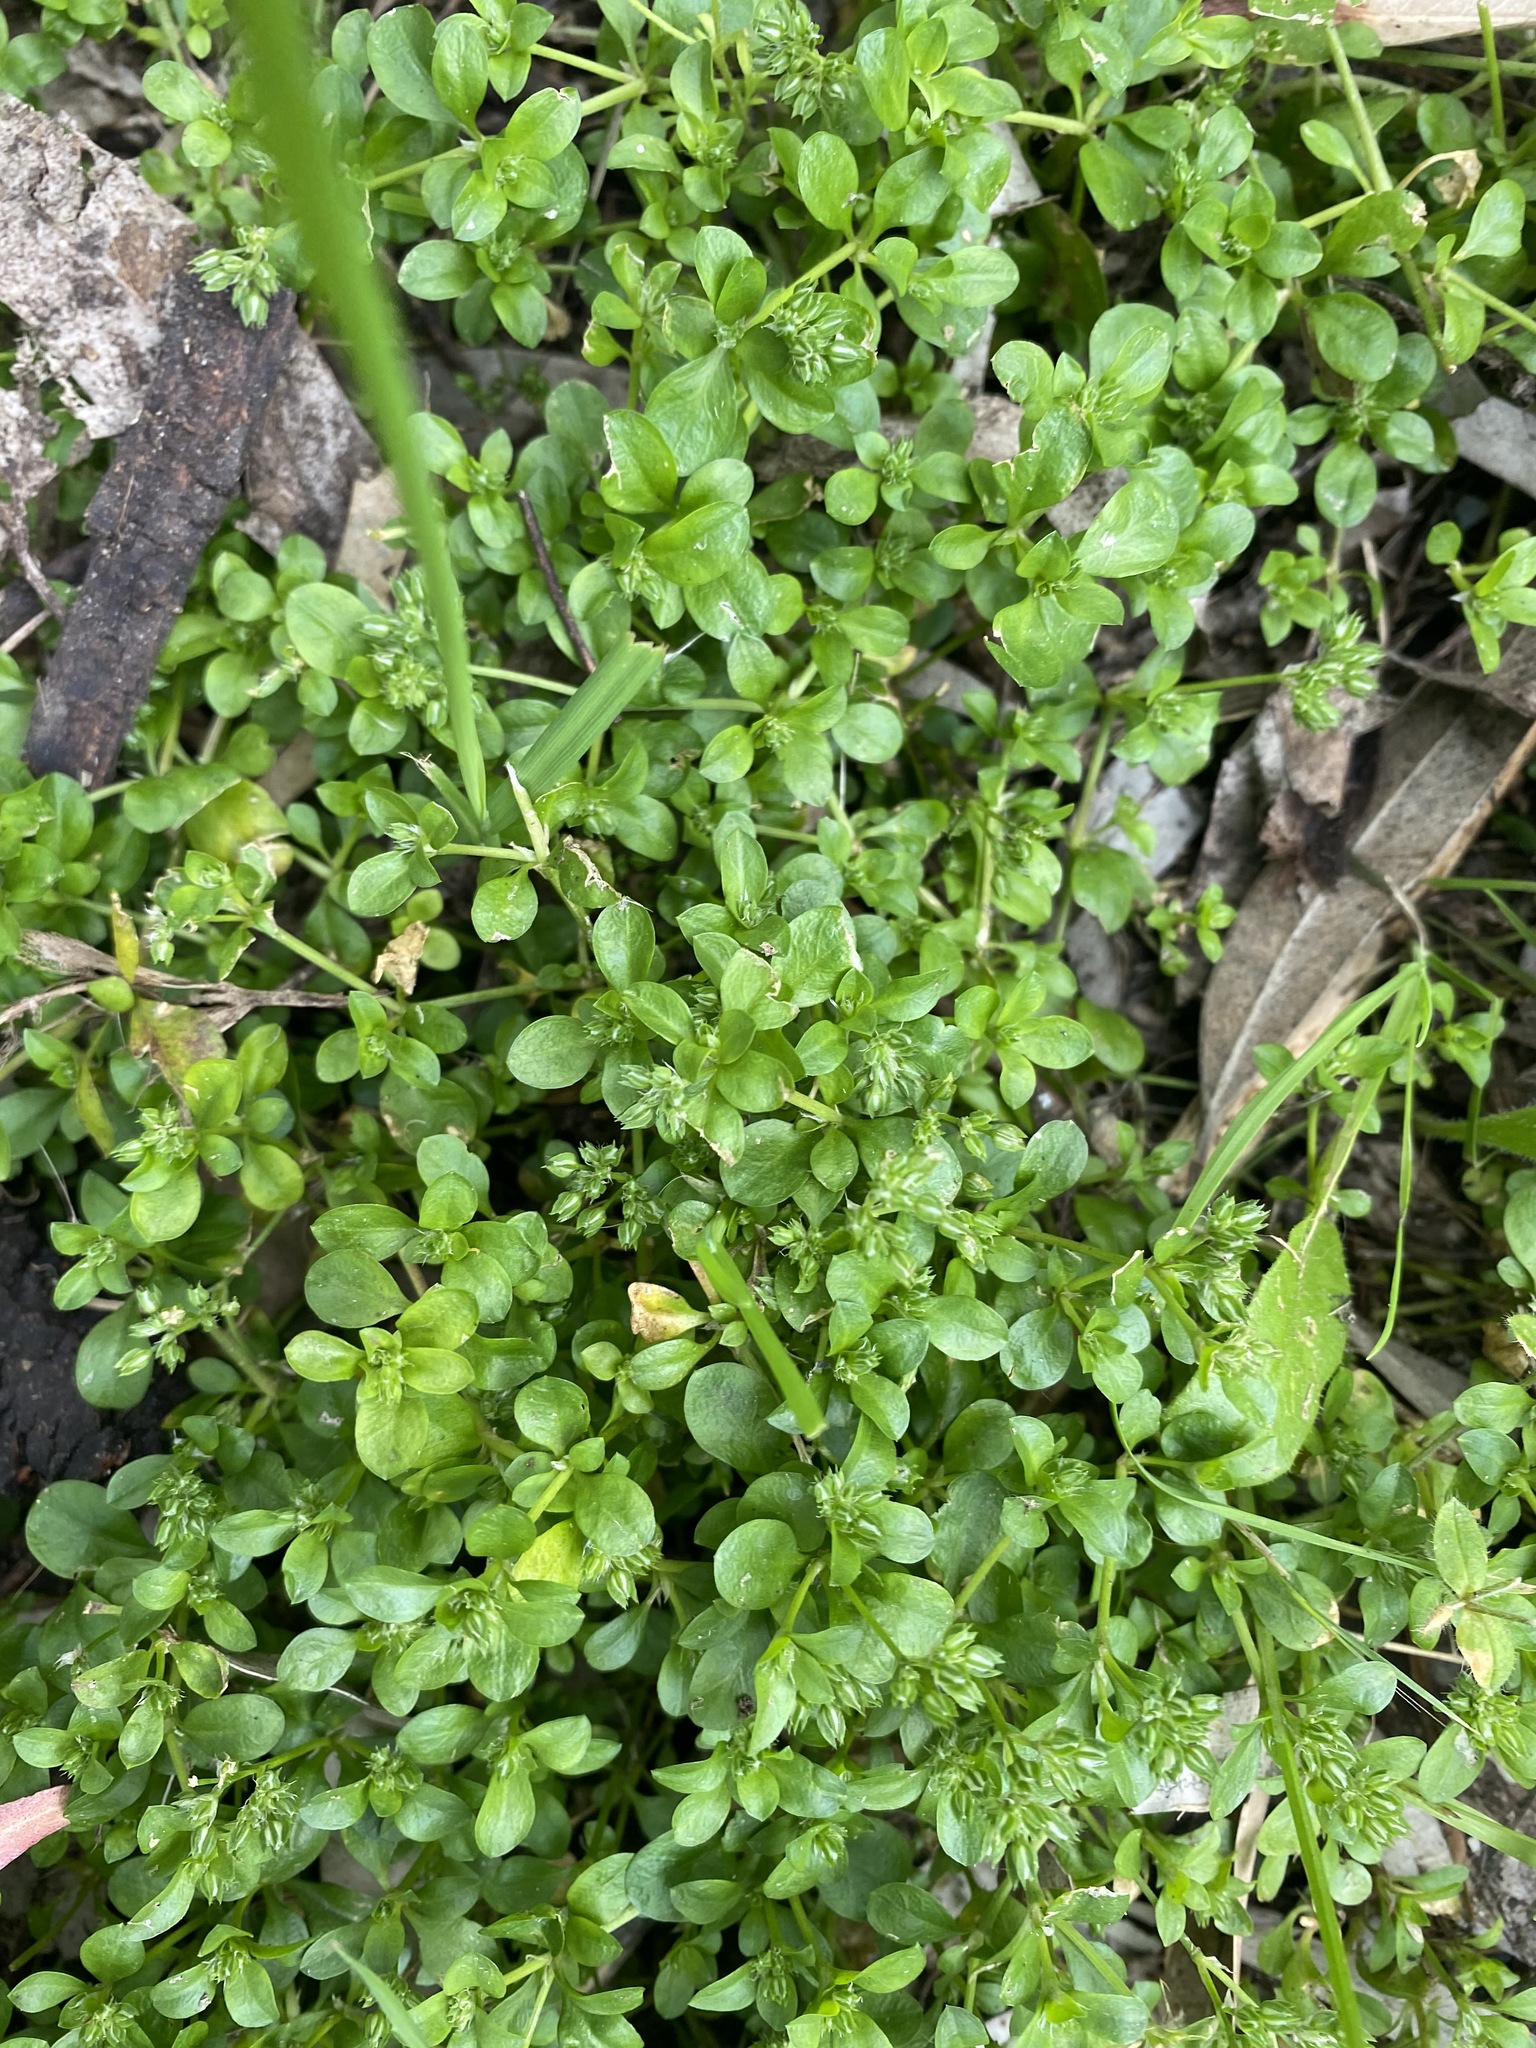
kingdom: Plantae
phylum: Tracheophyta
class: Magnoliopsida
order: Caryophyllales
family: Caryophyllaceae
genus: Polycarpon
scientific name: Polycarpon tetraphyllum
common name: Four-leaved all-seed
